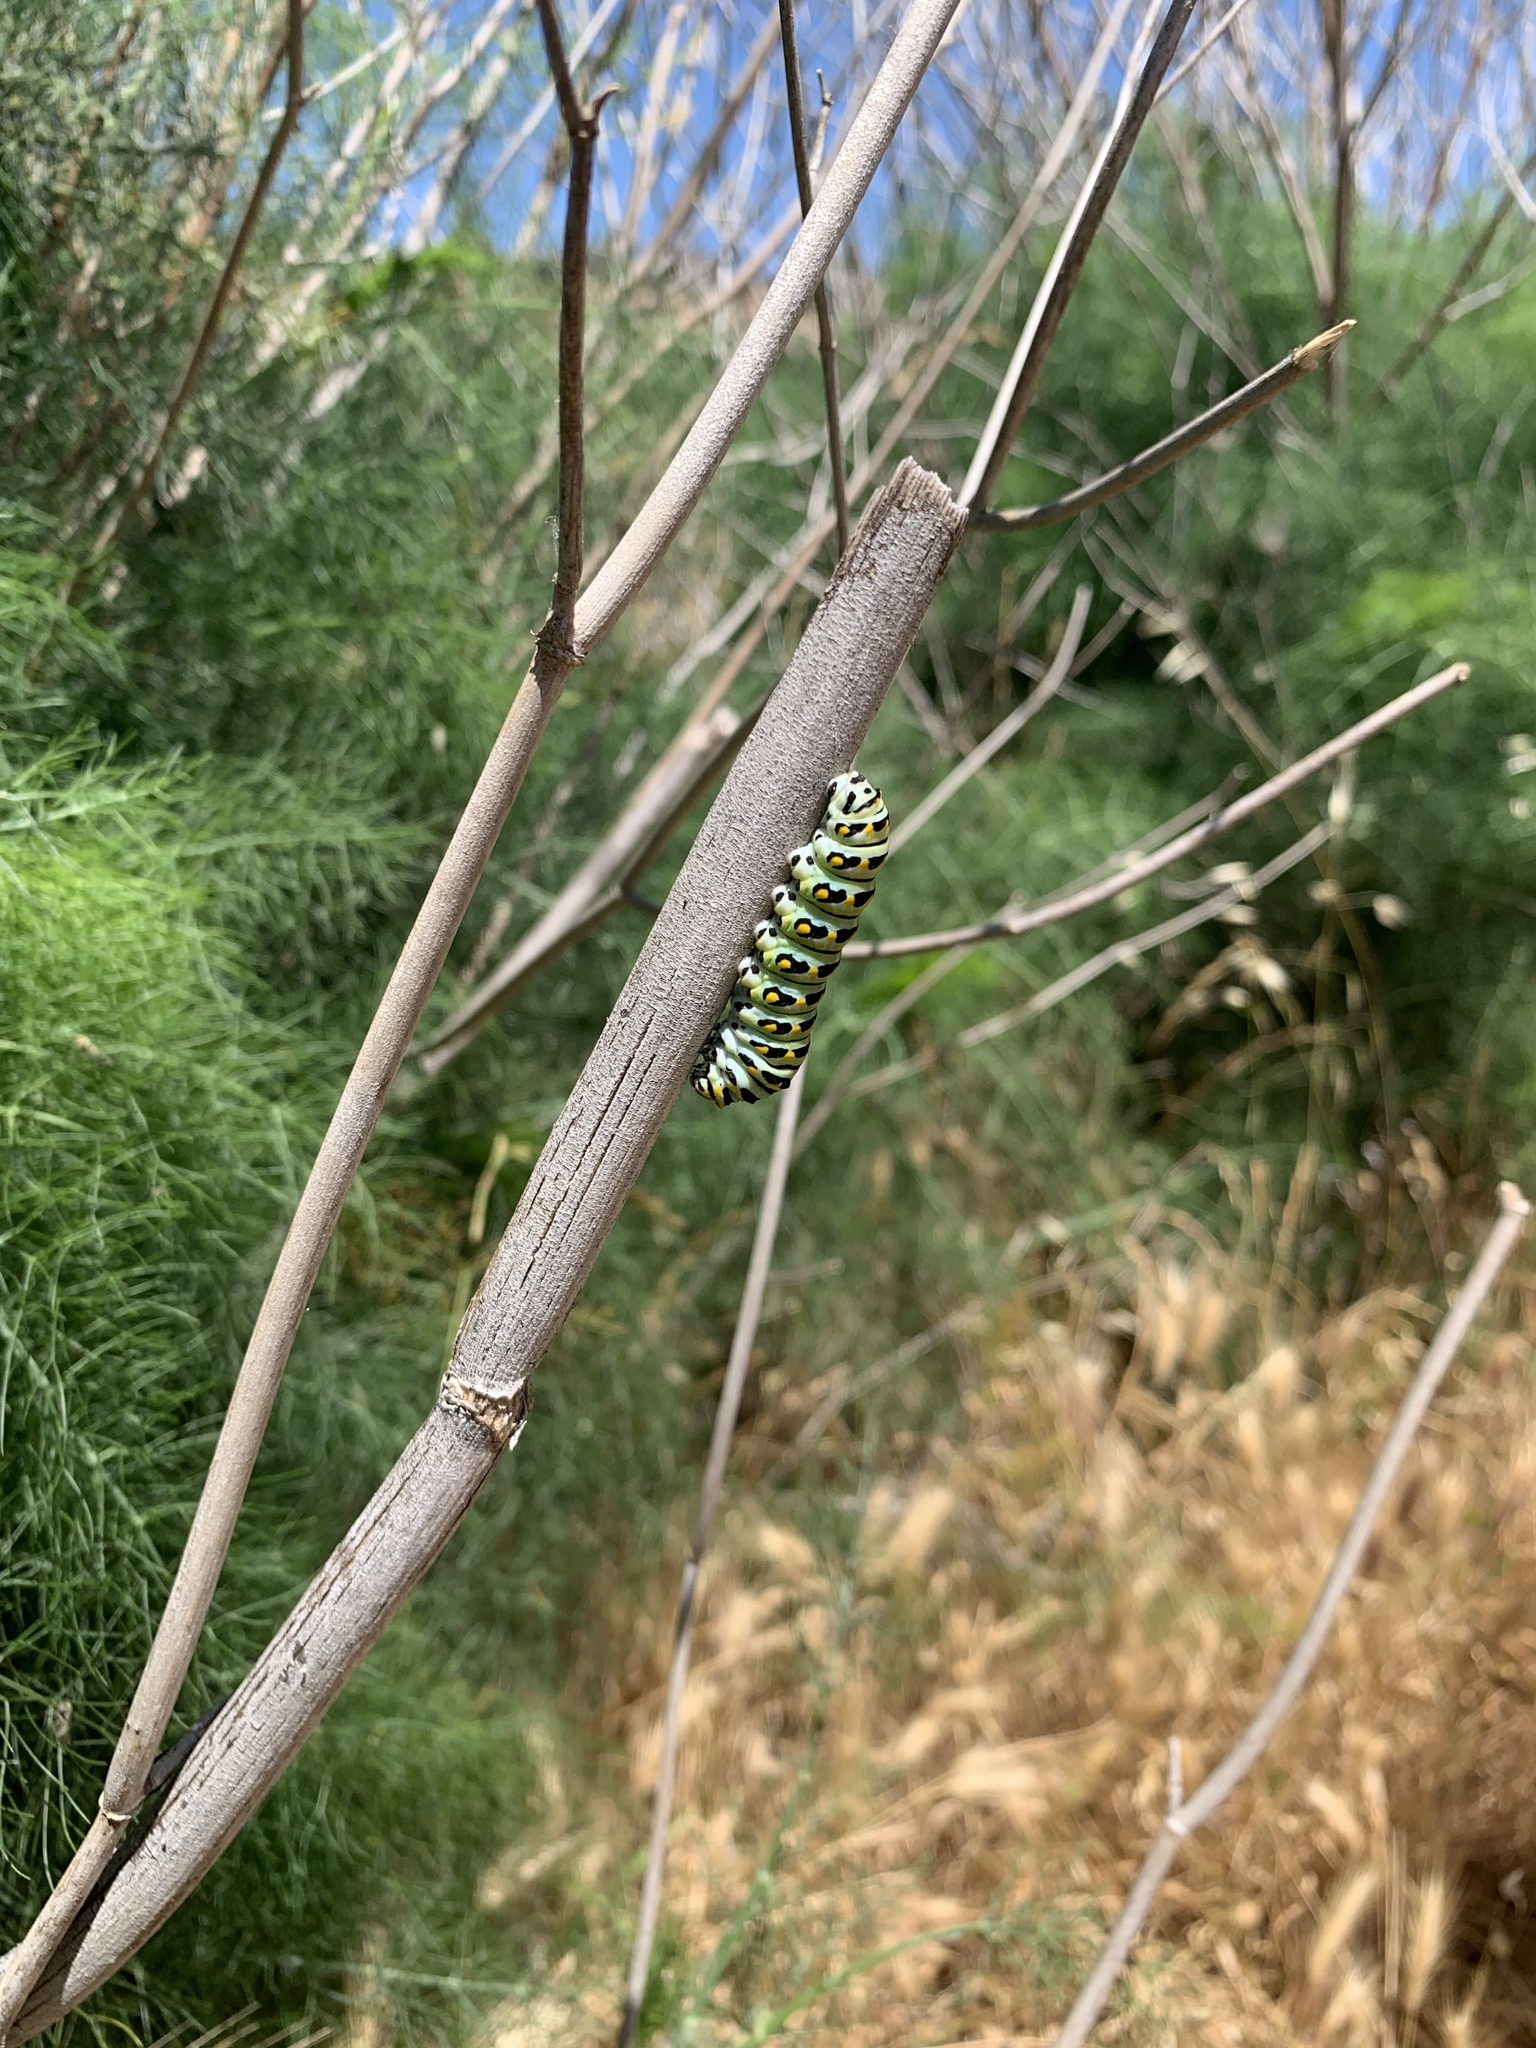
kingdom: Animalia
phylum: Arthropoda
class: Insecta
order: Lepidoptera
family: Papilionidae
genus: Papilio
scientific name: Papilio zelicaon
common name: Anise swallowtail
